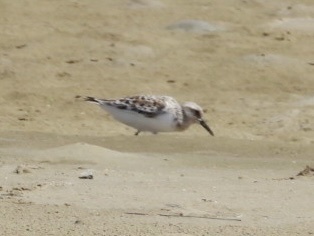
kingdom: Animalia
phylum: Chordata
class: Aves
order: Charadriiformes
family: Scolopacidae
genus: Calidris
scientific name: Calidris alba
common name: Sanderling
